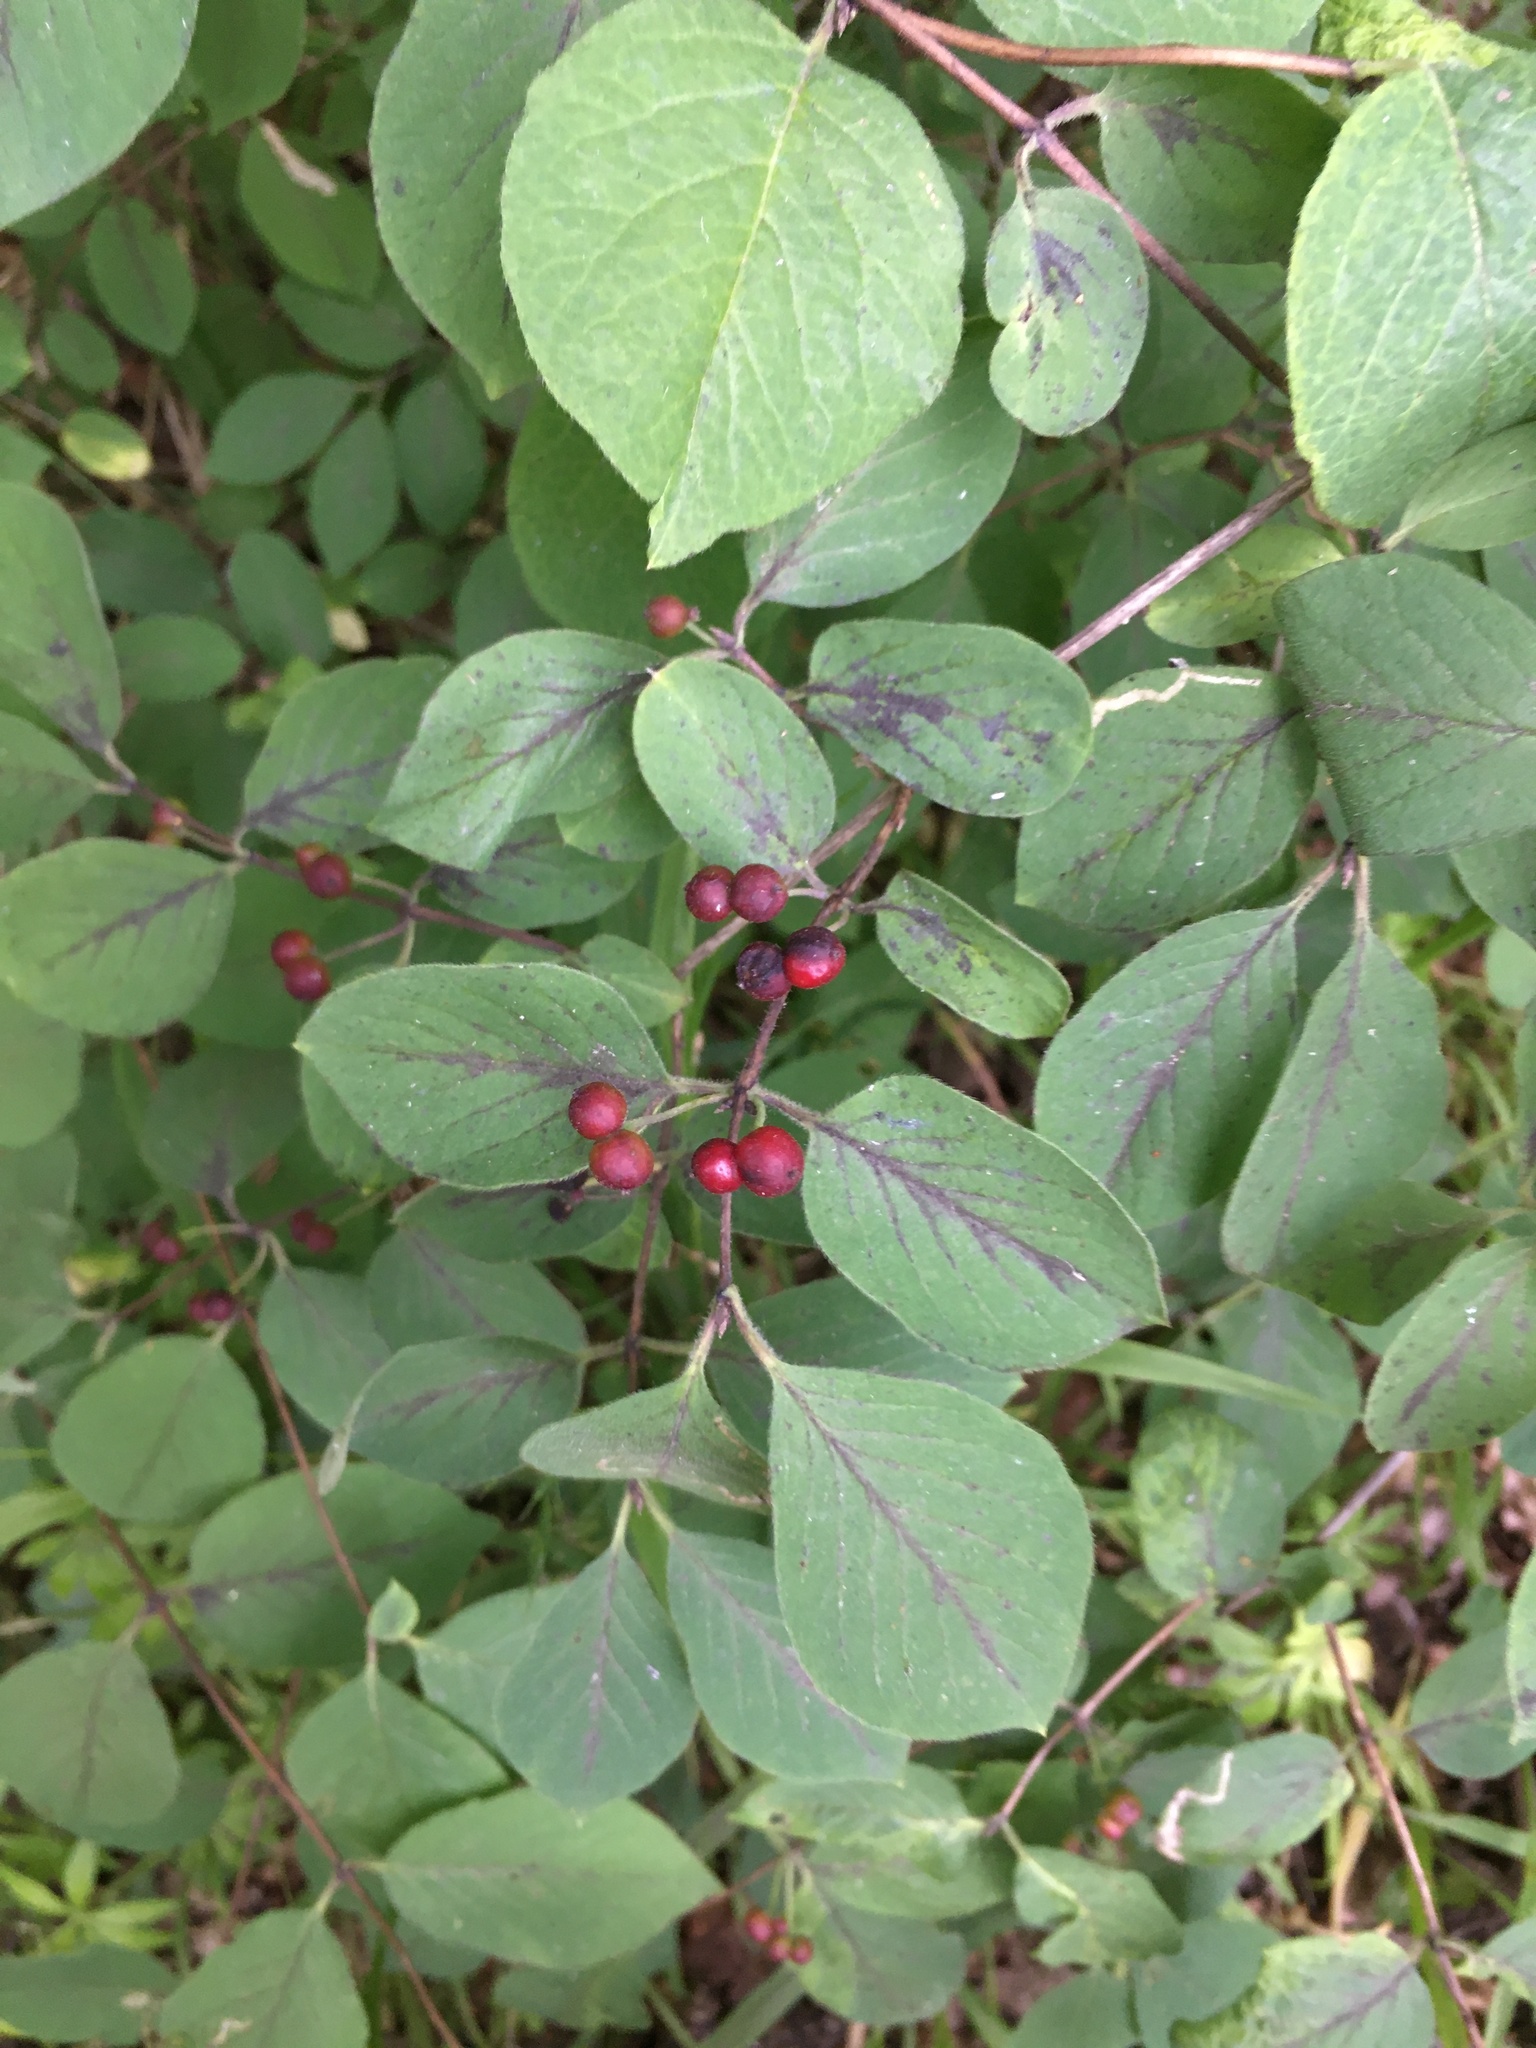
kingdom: Plantae
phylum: Tracheophyta
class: Magnoliopsida
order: Dipsacales
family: Caprifoliaceae
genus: Lonicera
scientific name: Lonicera xylosteum
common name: Fly honeysuckle
